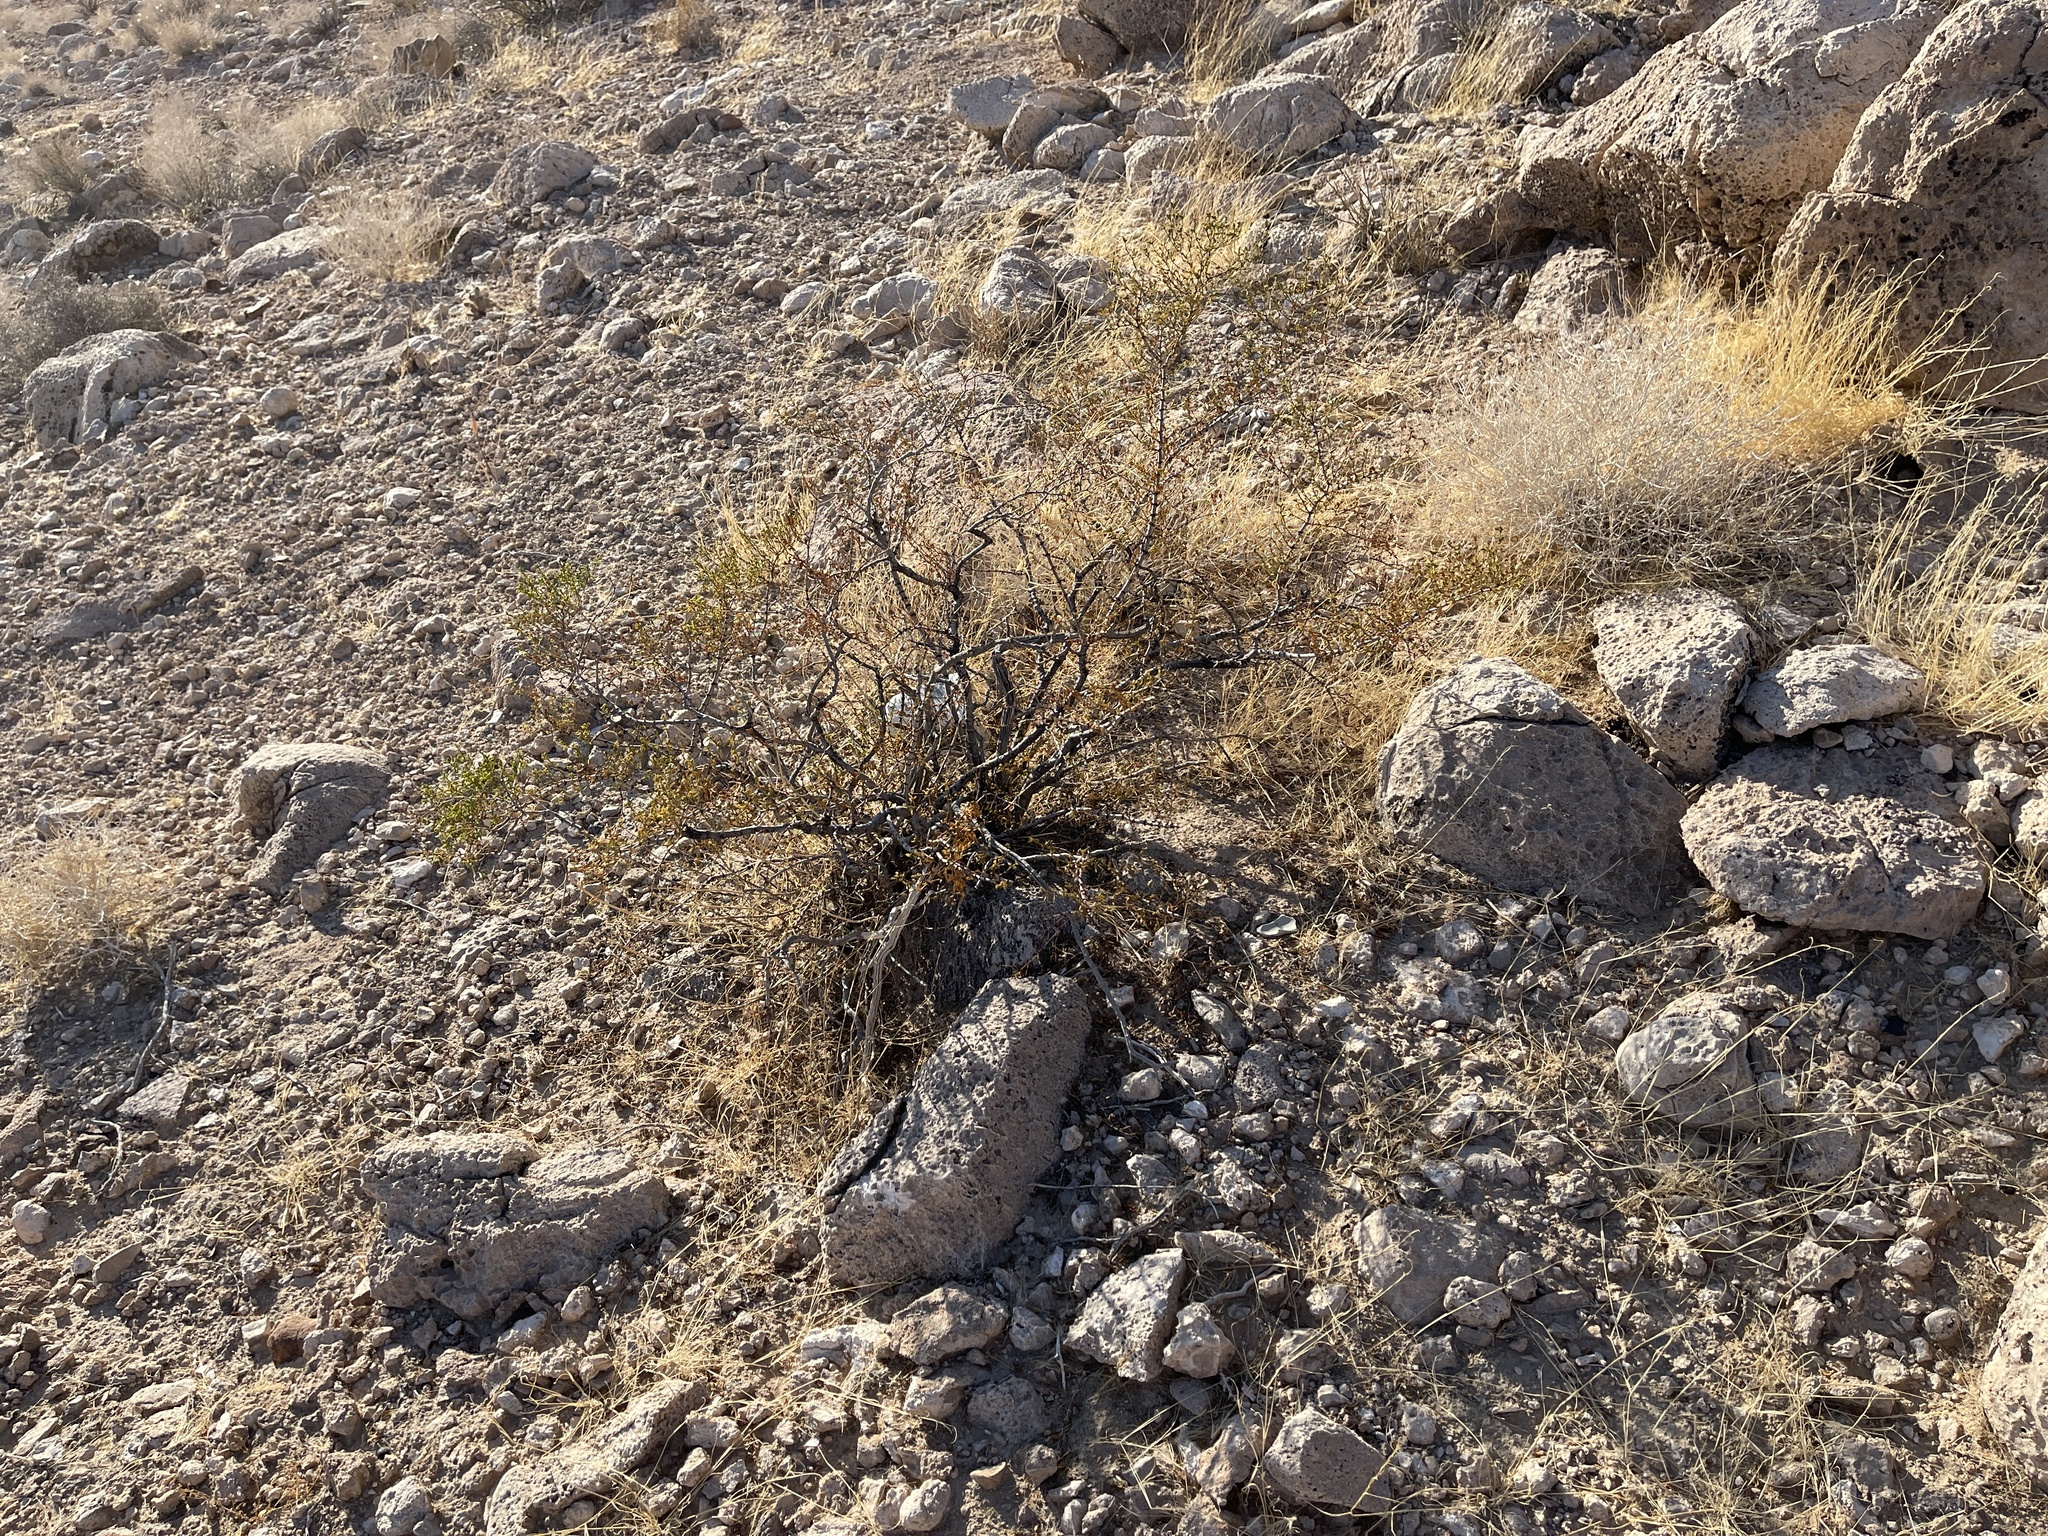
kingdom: Plantae
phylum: Tracheophyta
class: Magnoliopsida
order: Zygophyllales
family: Zygophyllaceae
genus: Larrea
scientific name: Larrea tridentata
